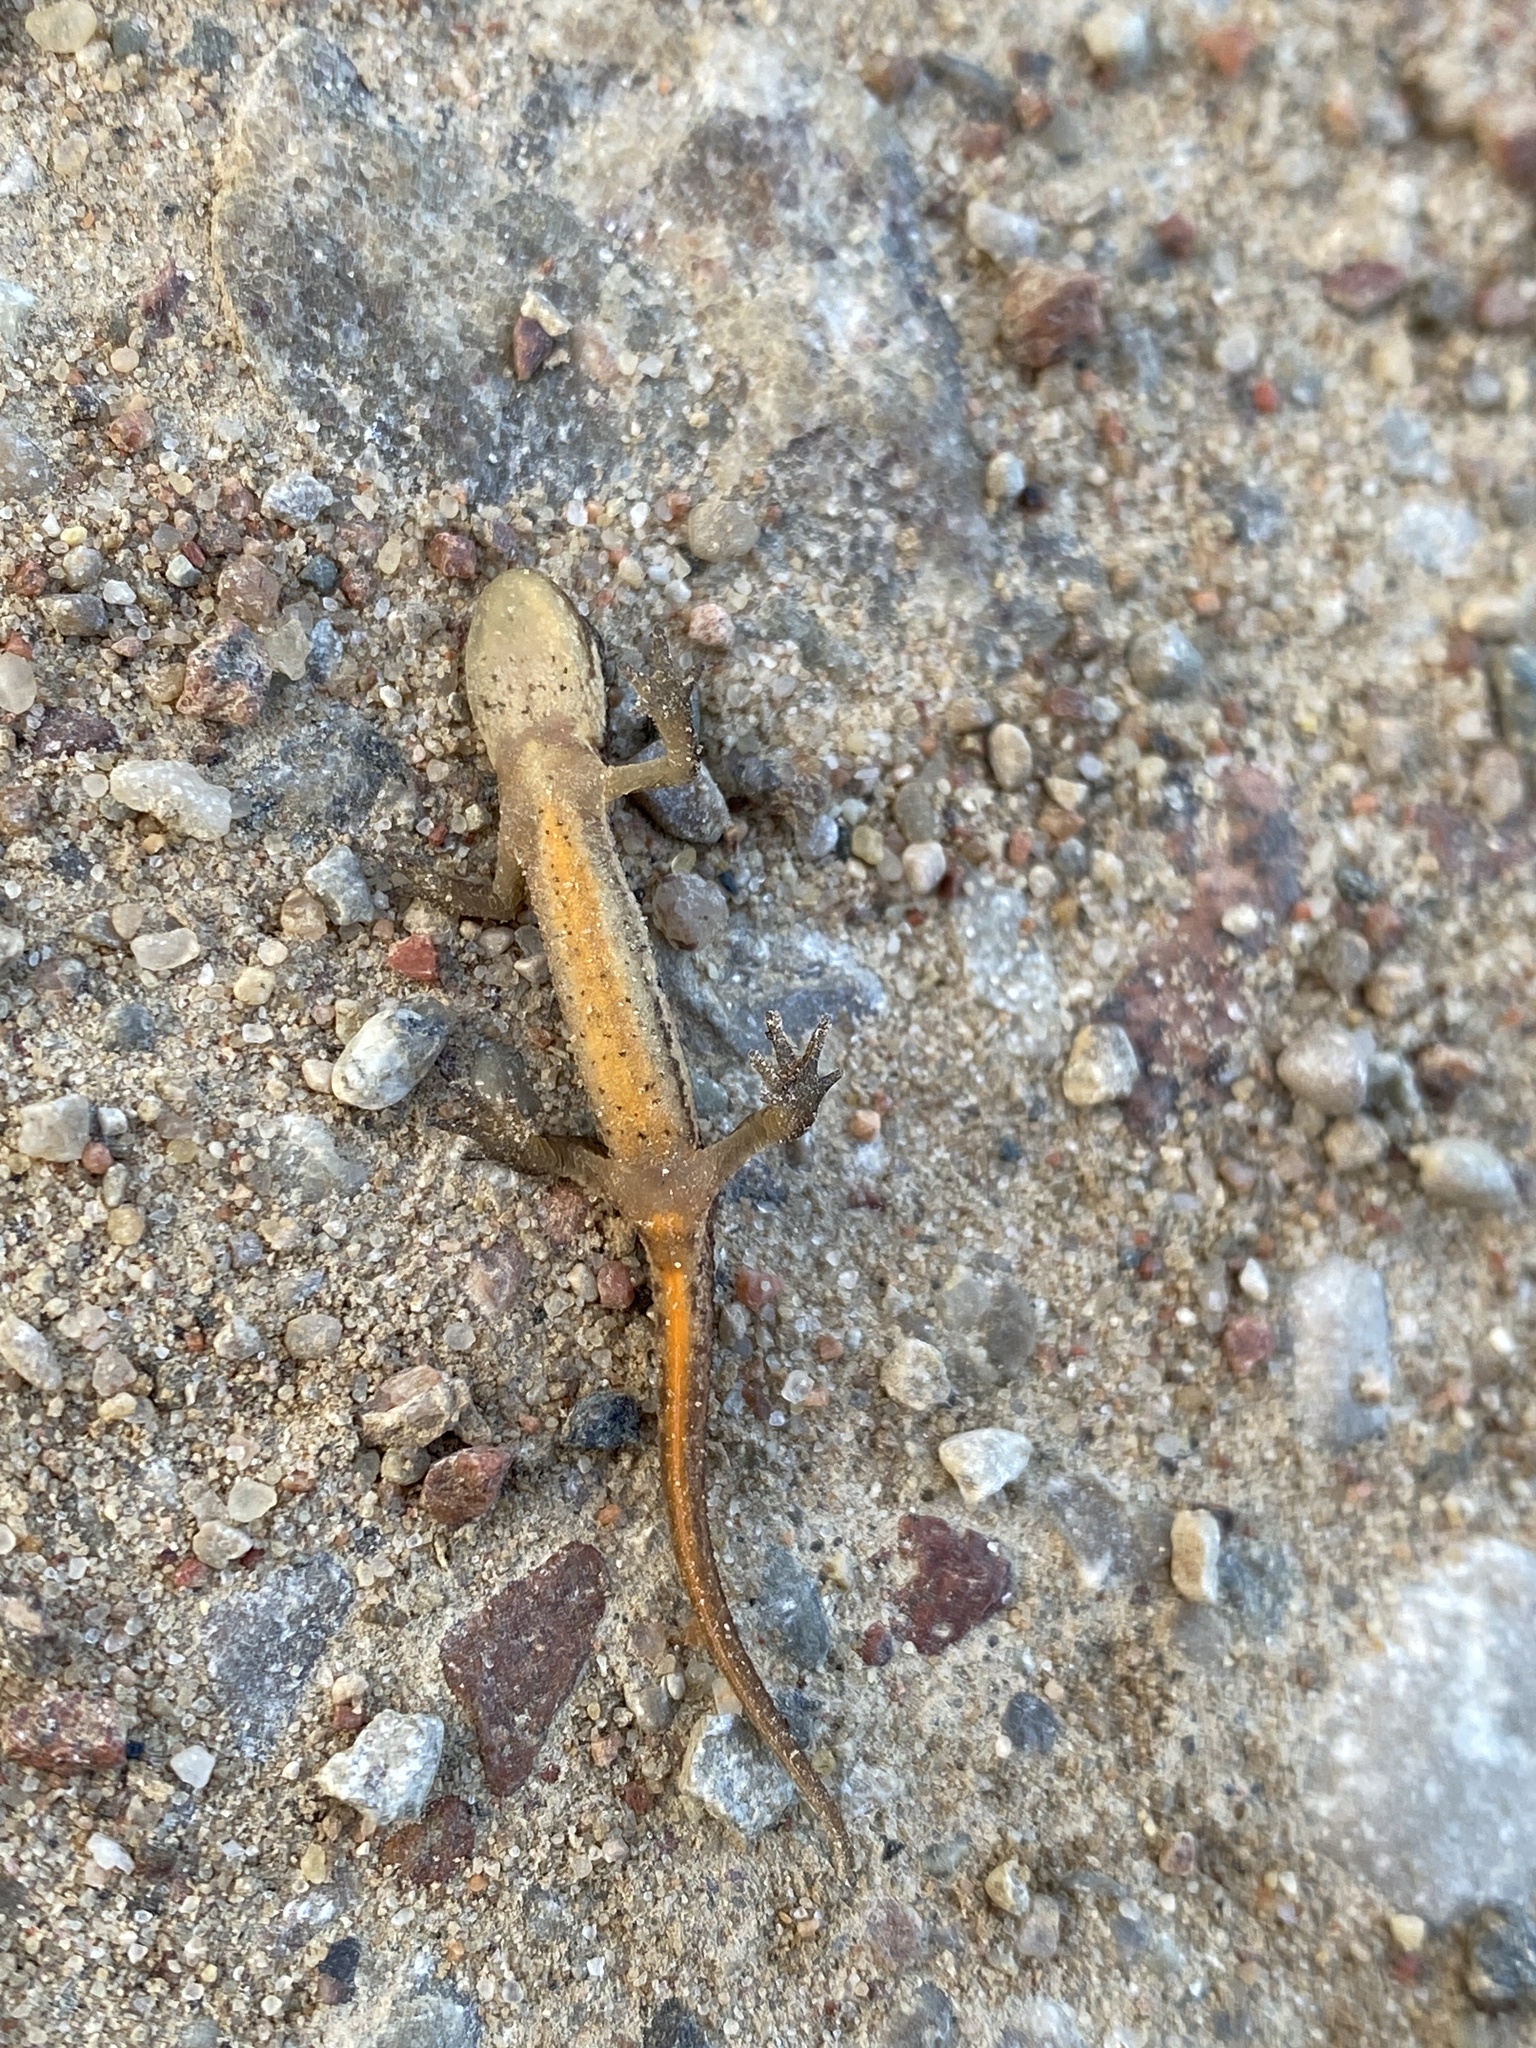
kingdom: Animalia
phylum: Chordata
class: Amphibia
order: Caudata
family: Salamandridae
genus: Lissotriton
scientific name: Lissotriton vulgaris
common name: Smooth newt
